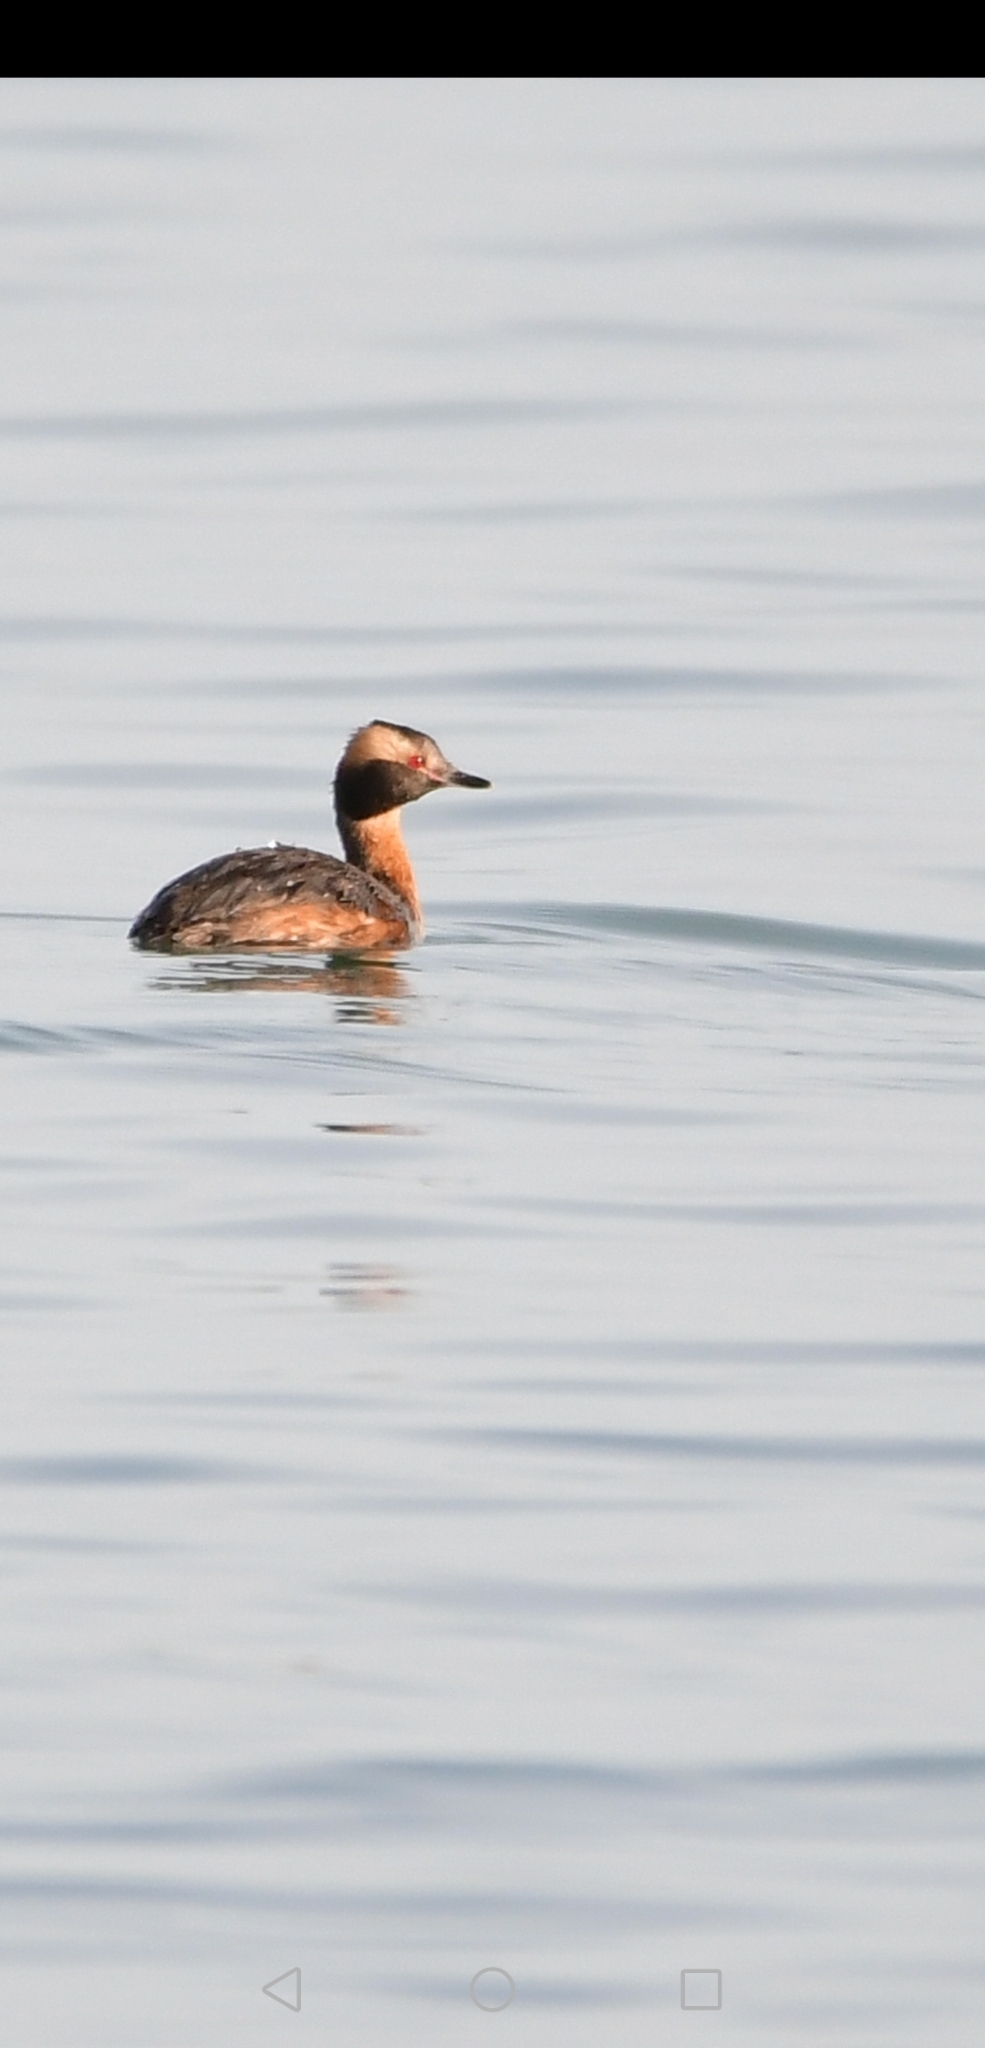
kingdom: Animalia
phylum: Chordata
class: Aves
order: Podicipediformes
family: Podicipedidae
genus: Podiceps
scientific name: Podiceps auritus
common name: Horned grebe
